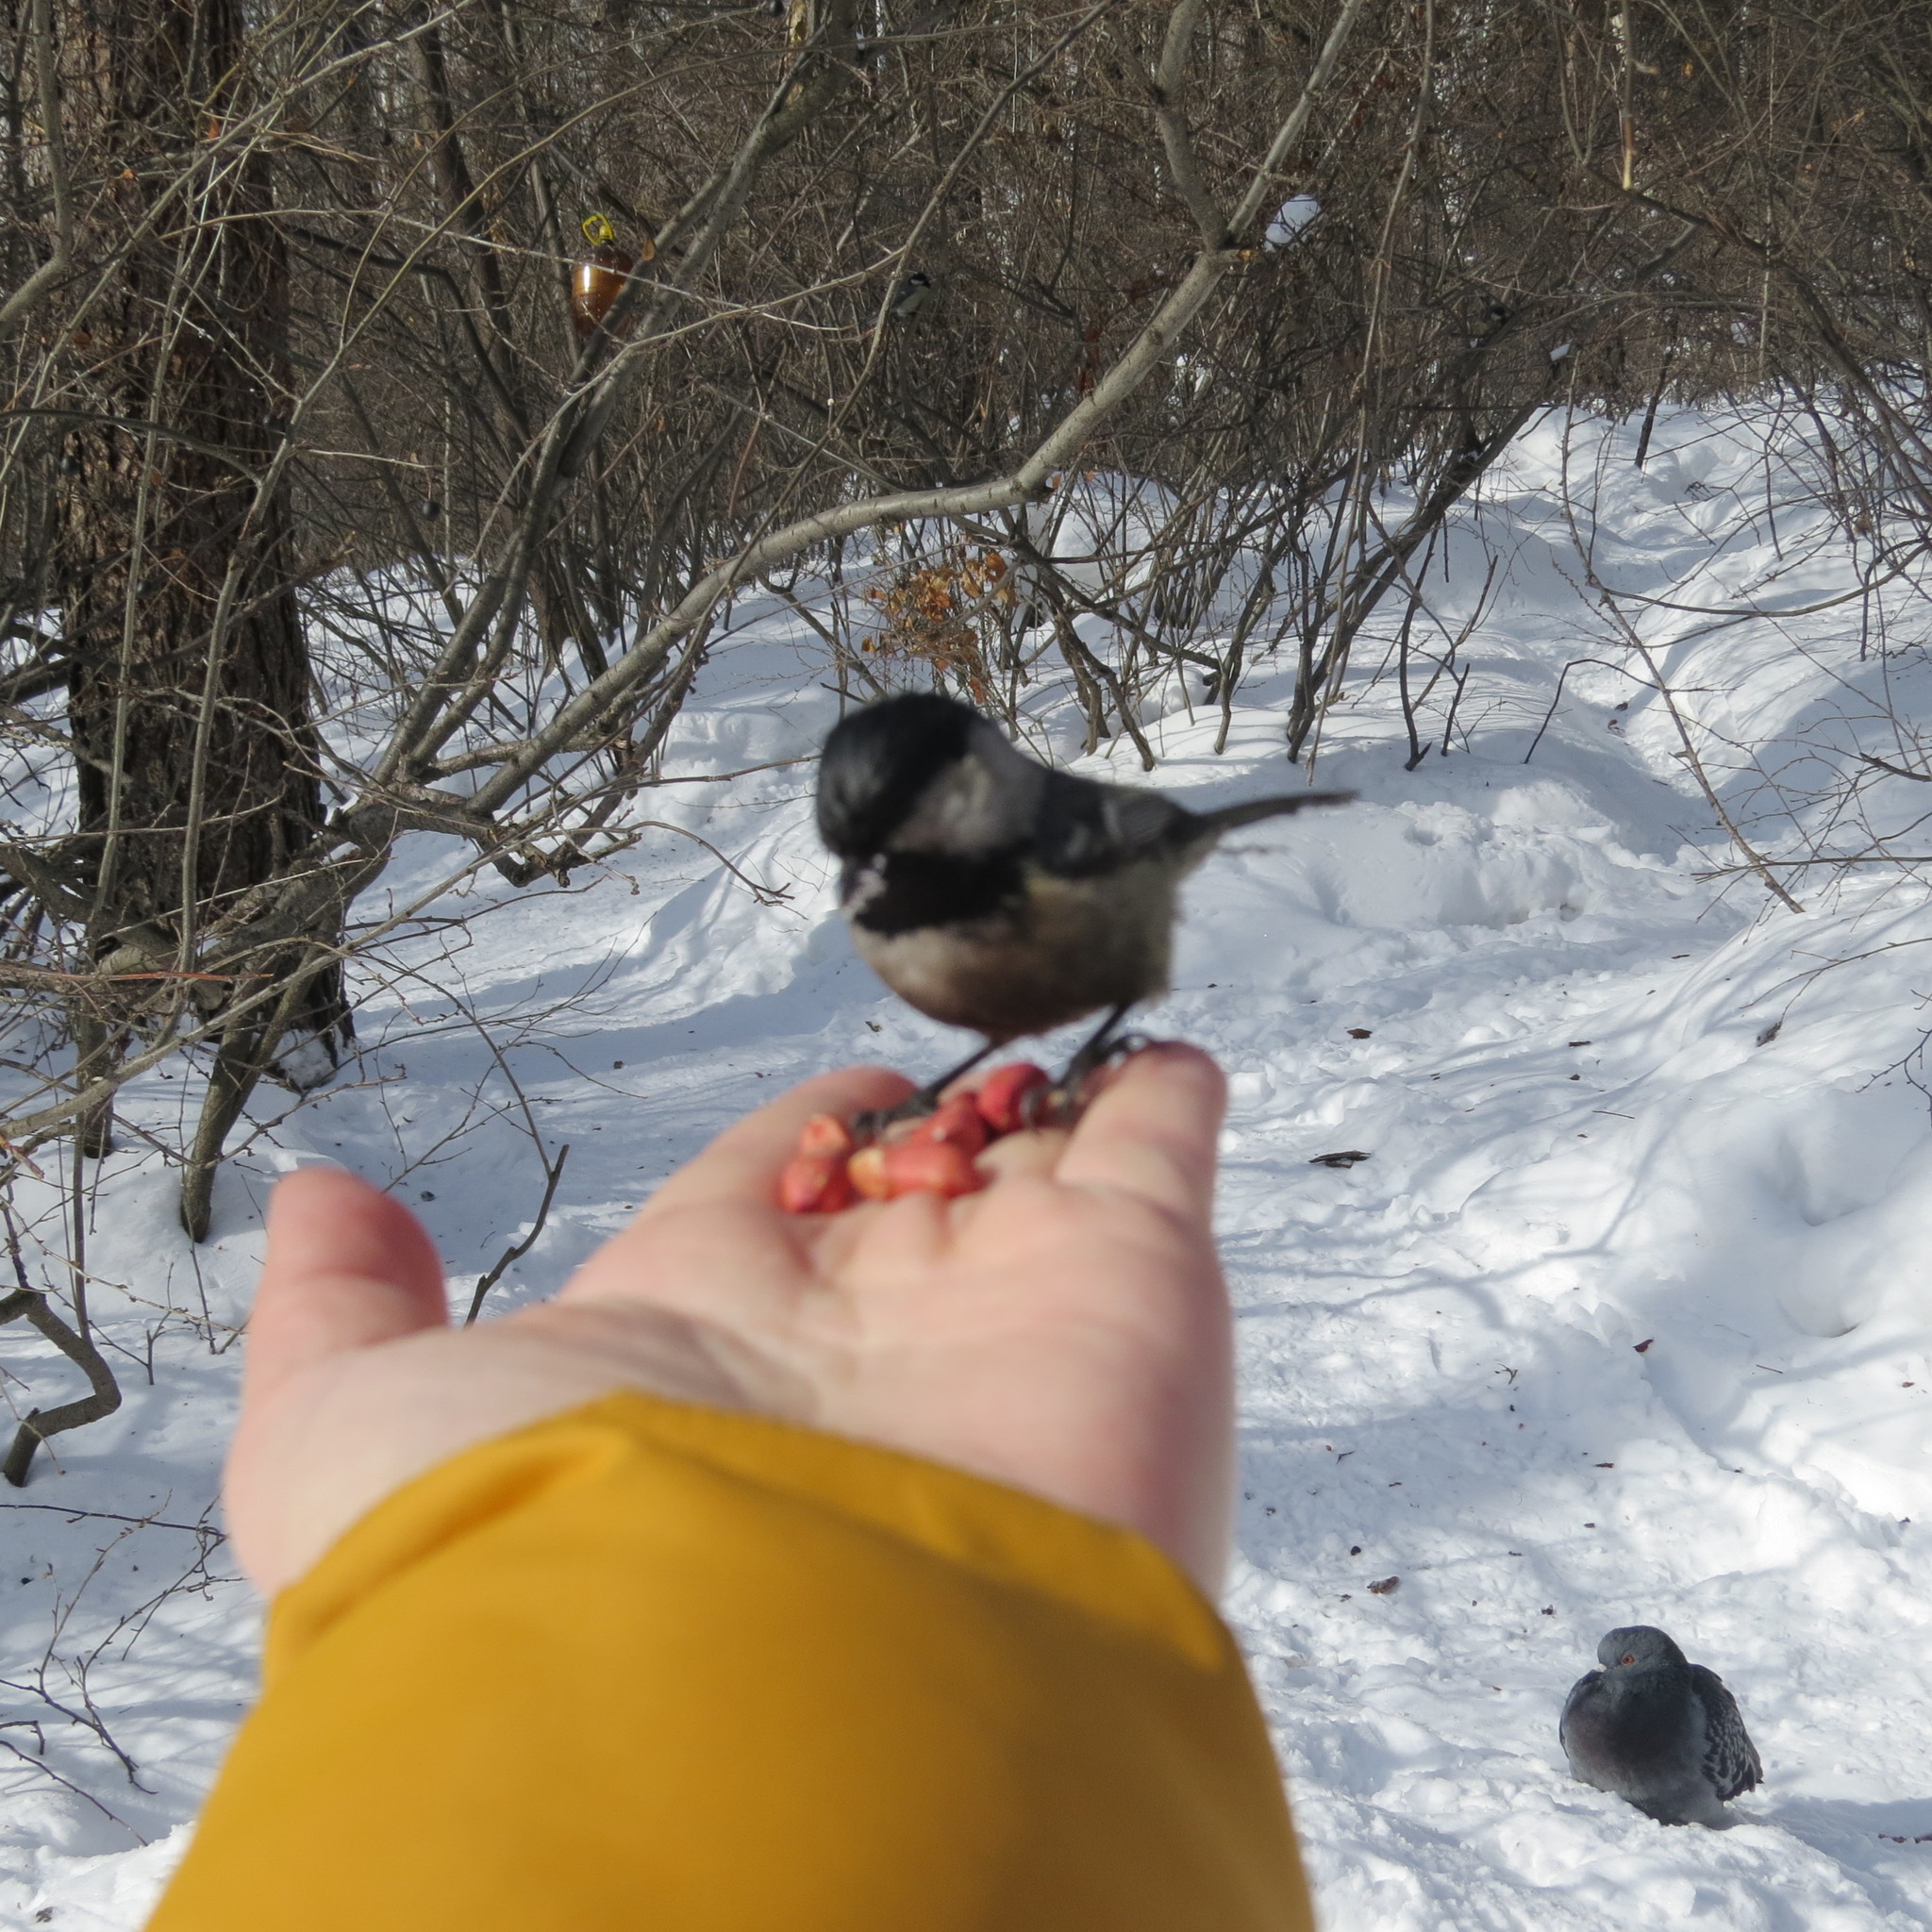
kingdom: Animalia
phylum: Chordata
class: Aves
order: Passeriformes
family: Paridae
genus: Periparus
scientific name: Periparus ater
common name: Coal tit
